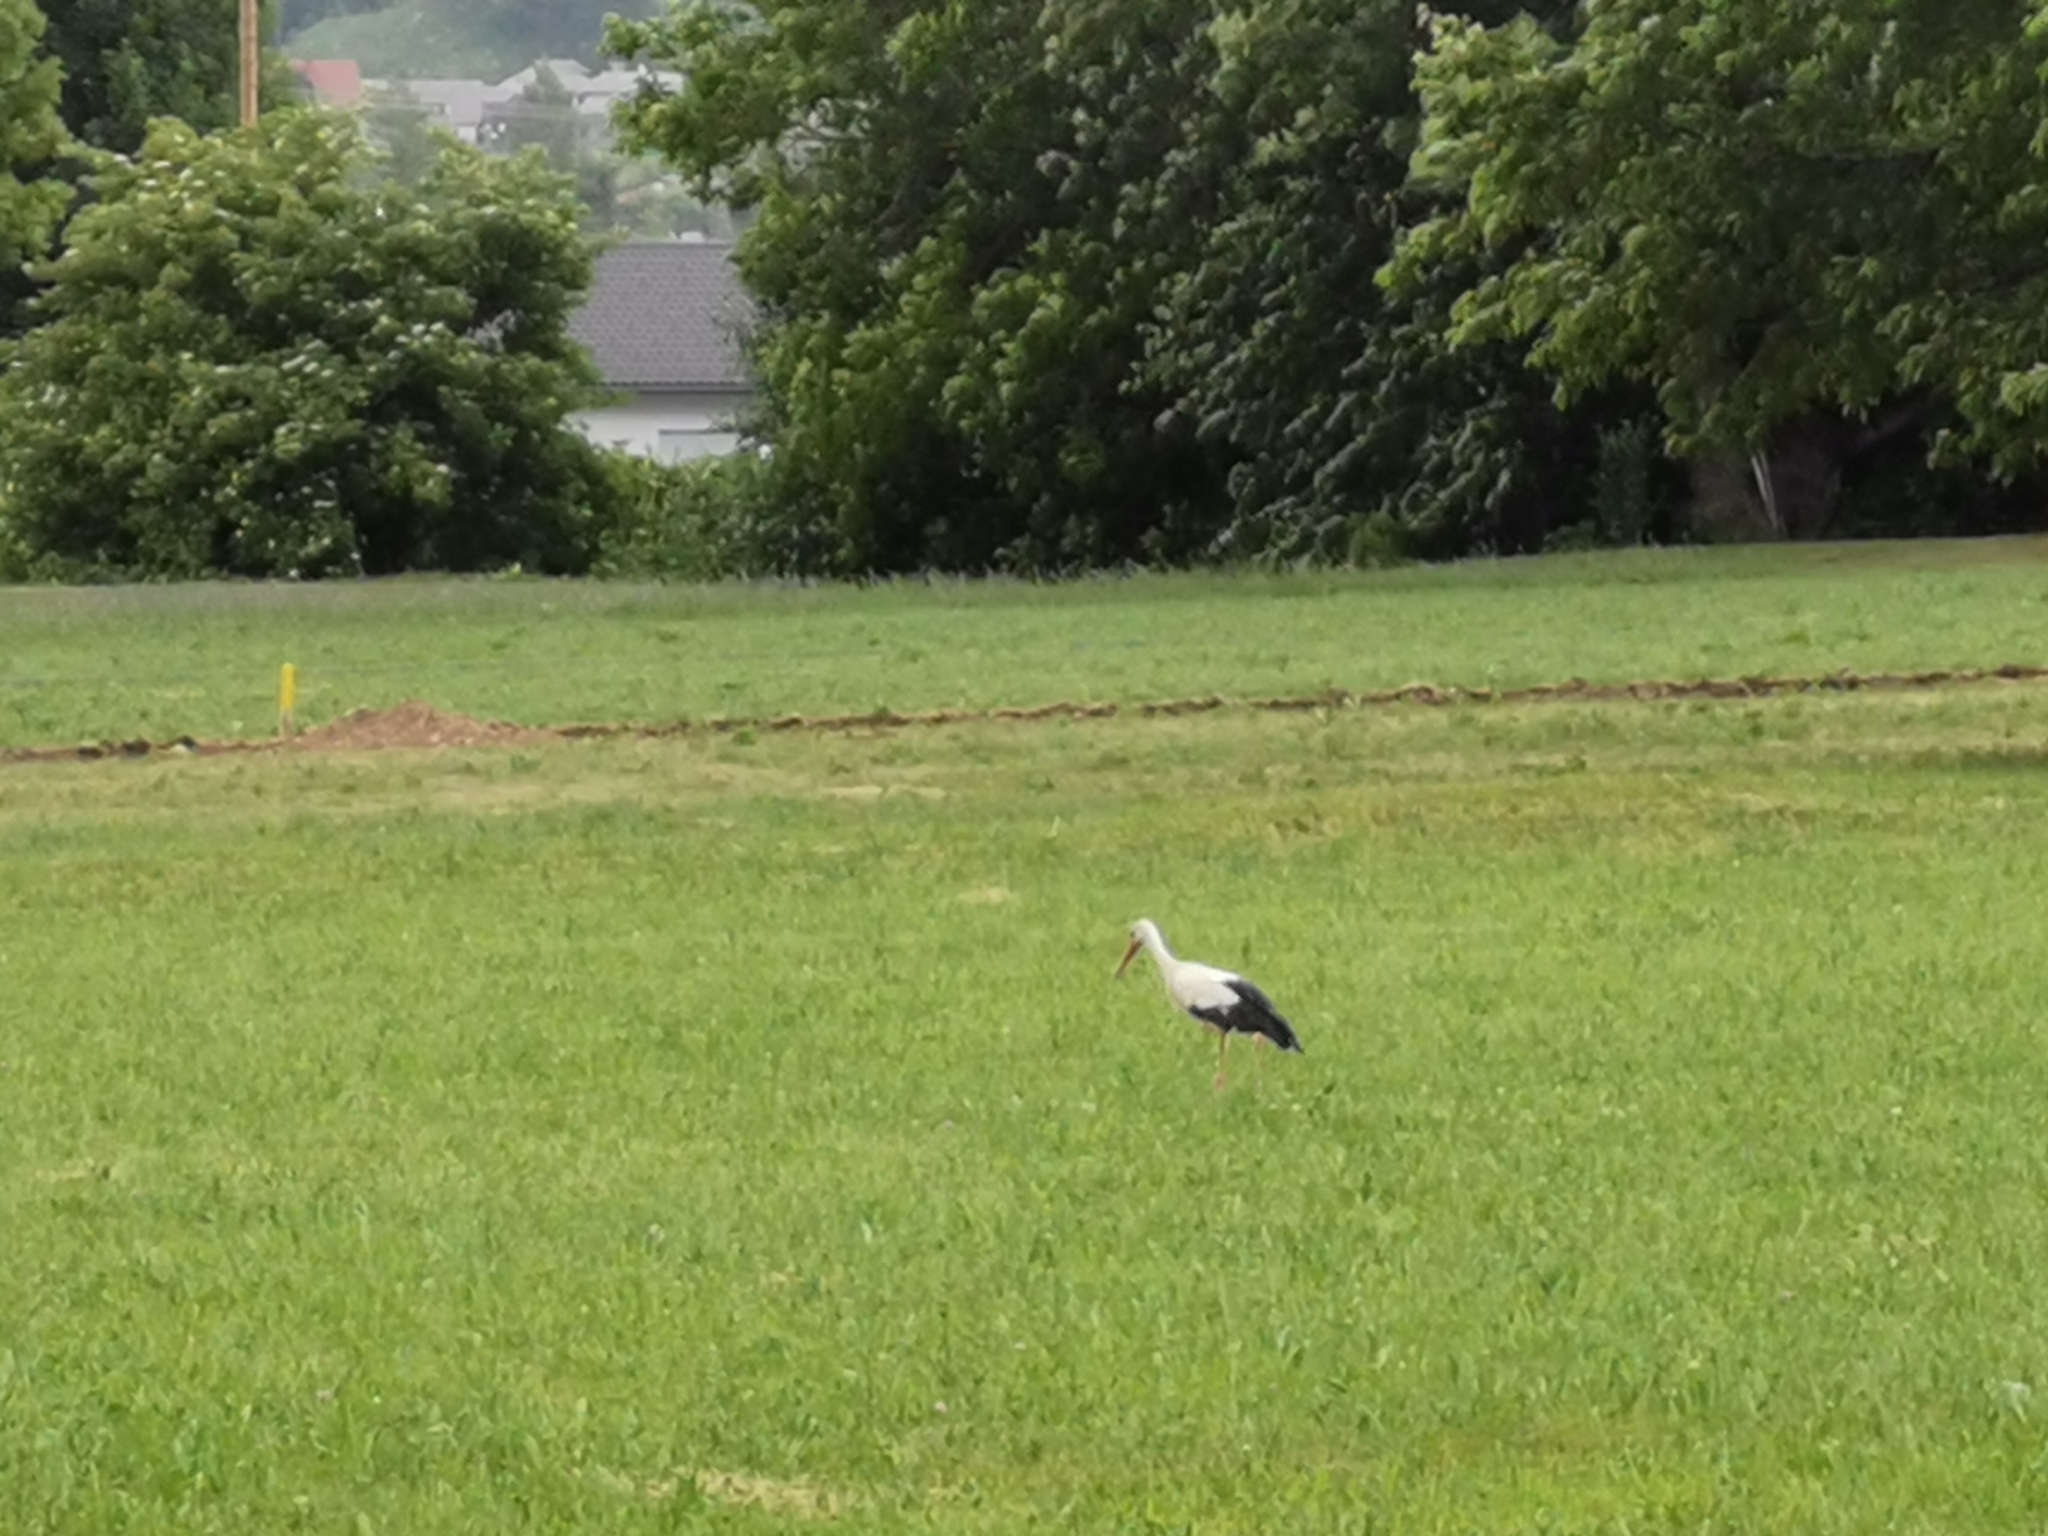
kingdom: Animalia
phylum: Chordata
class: Aves
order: Ciconiiformes
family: Ciconiidae
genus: Ciconia
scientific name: Ciconia ciconia
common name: White stork
